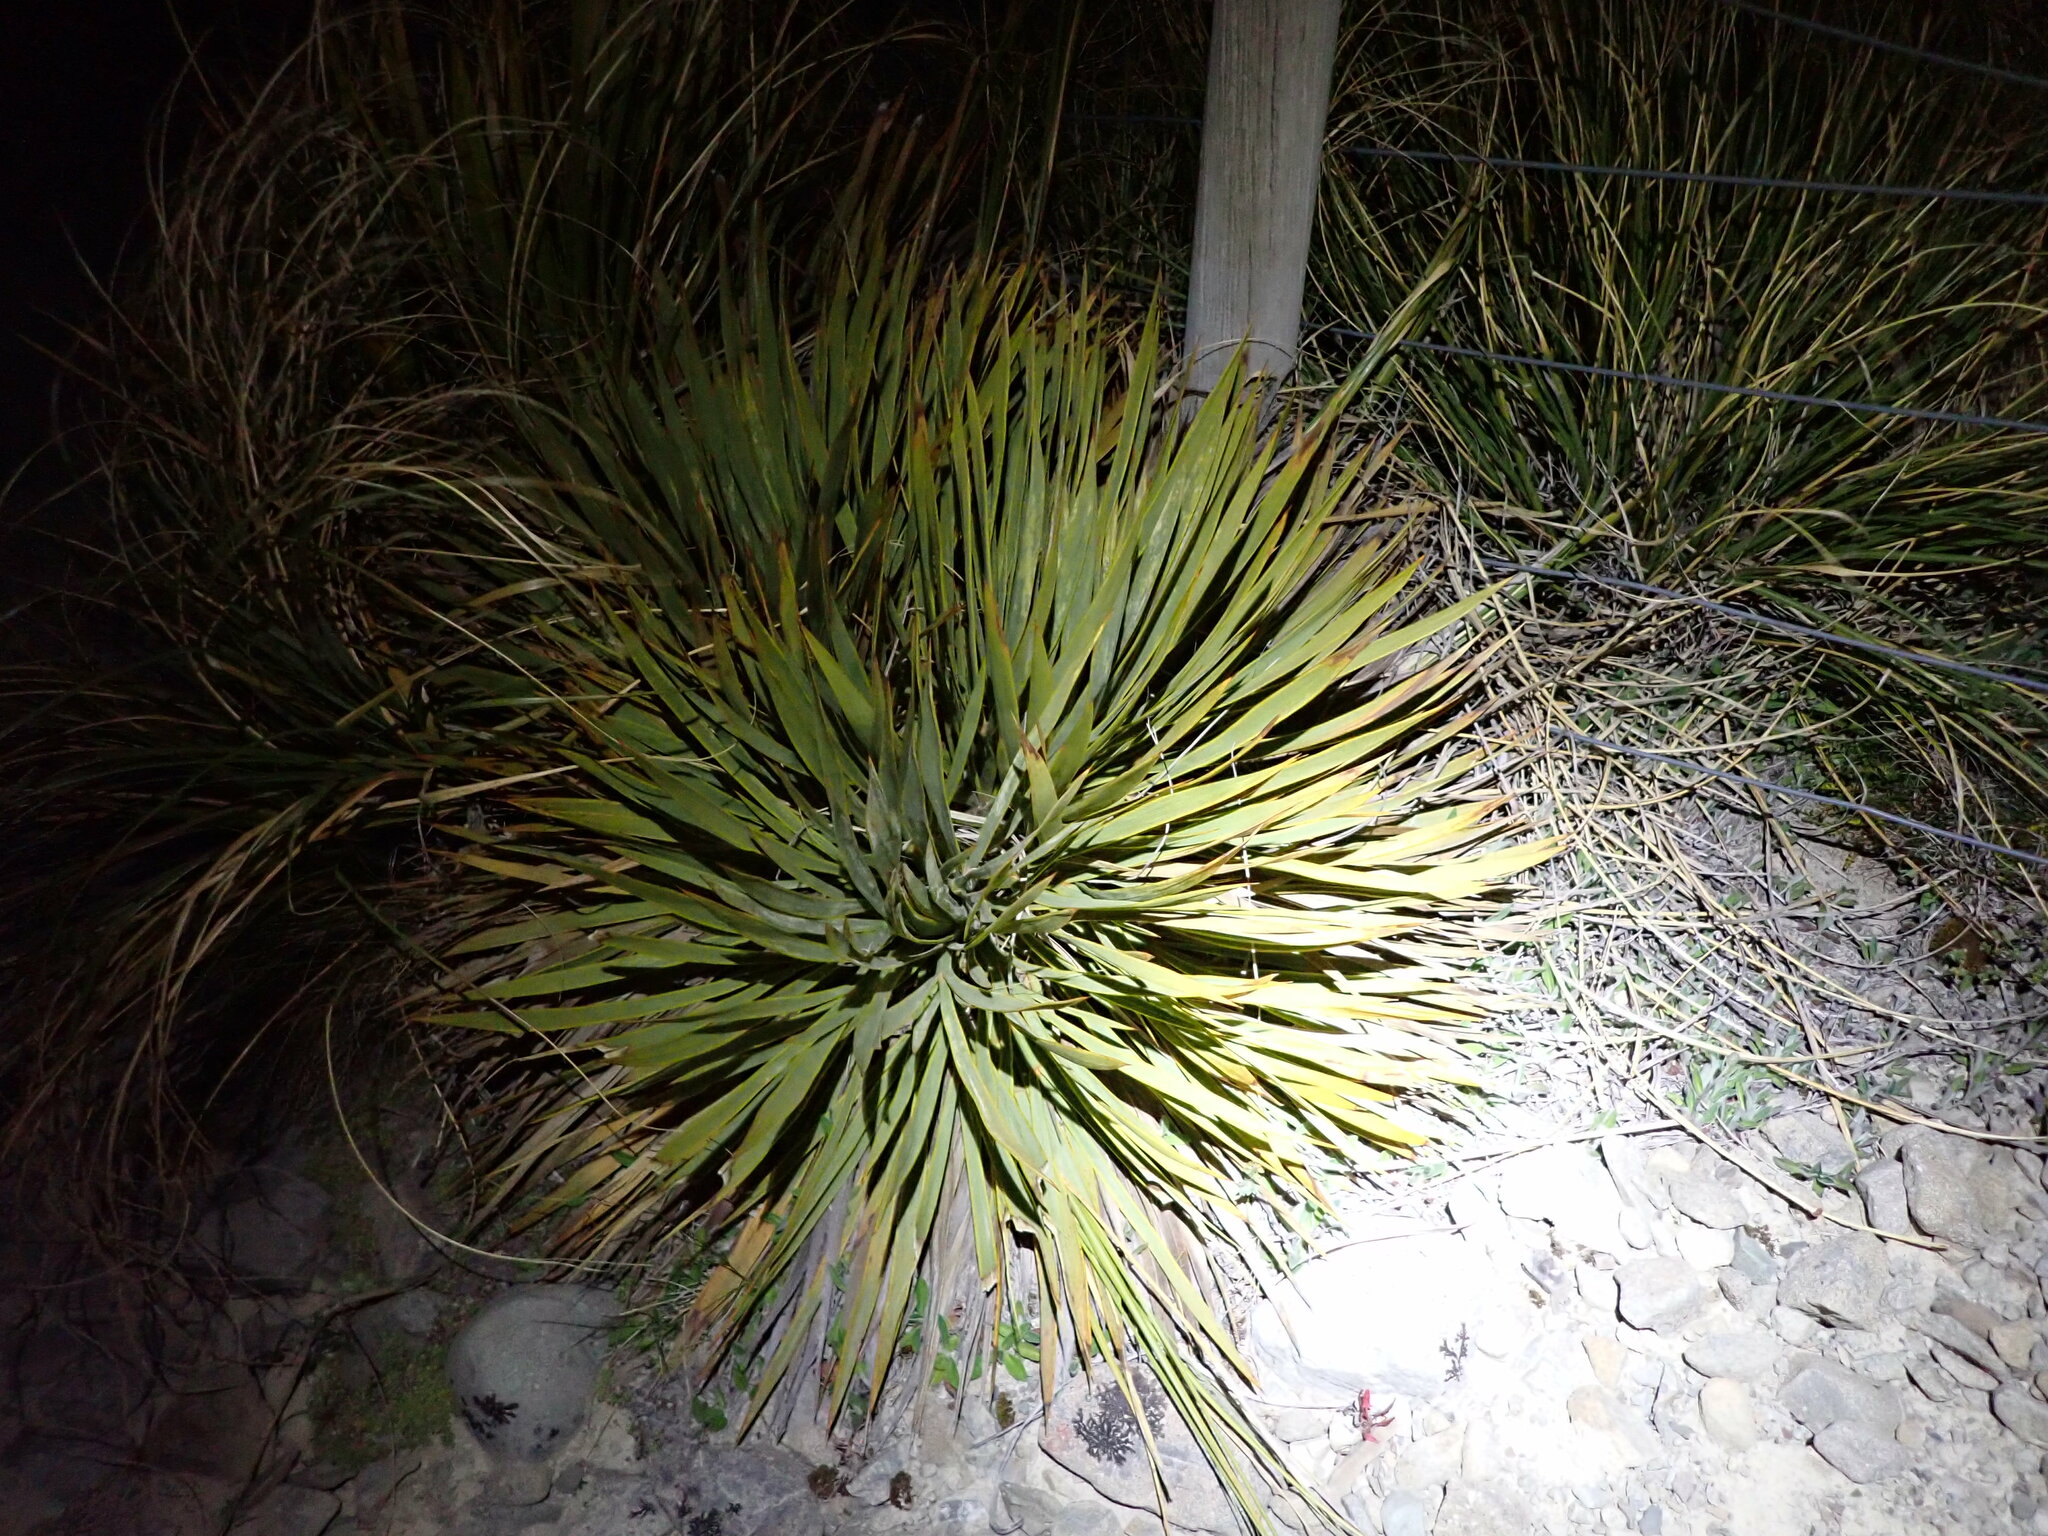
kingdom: Plantae
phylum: Tracheophyta
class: Magnoliopsida
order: Apiales
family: Apiaceae
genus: Aciphylla
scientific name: Aciphylla aurea
